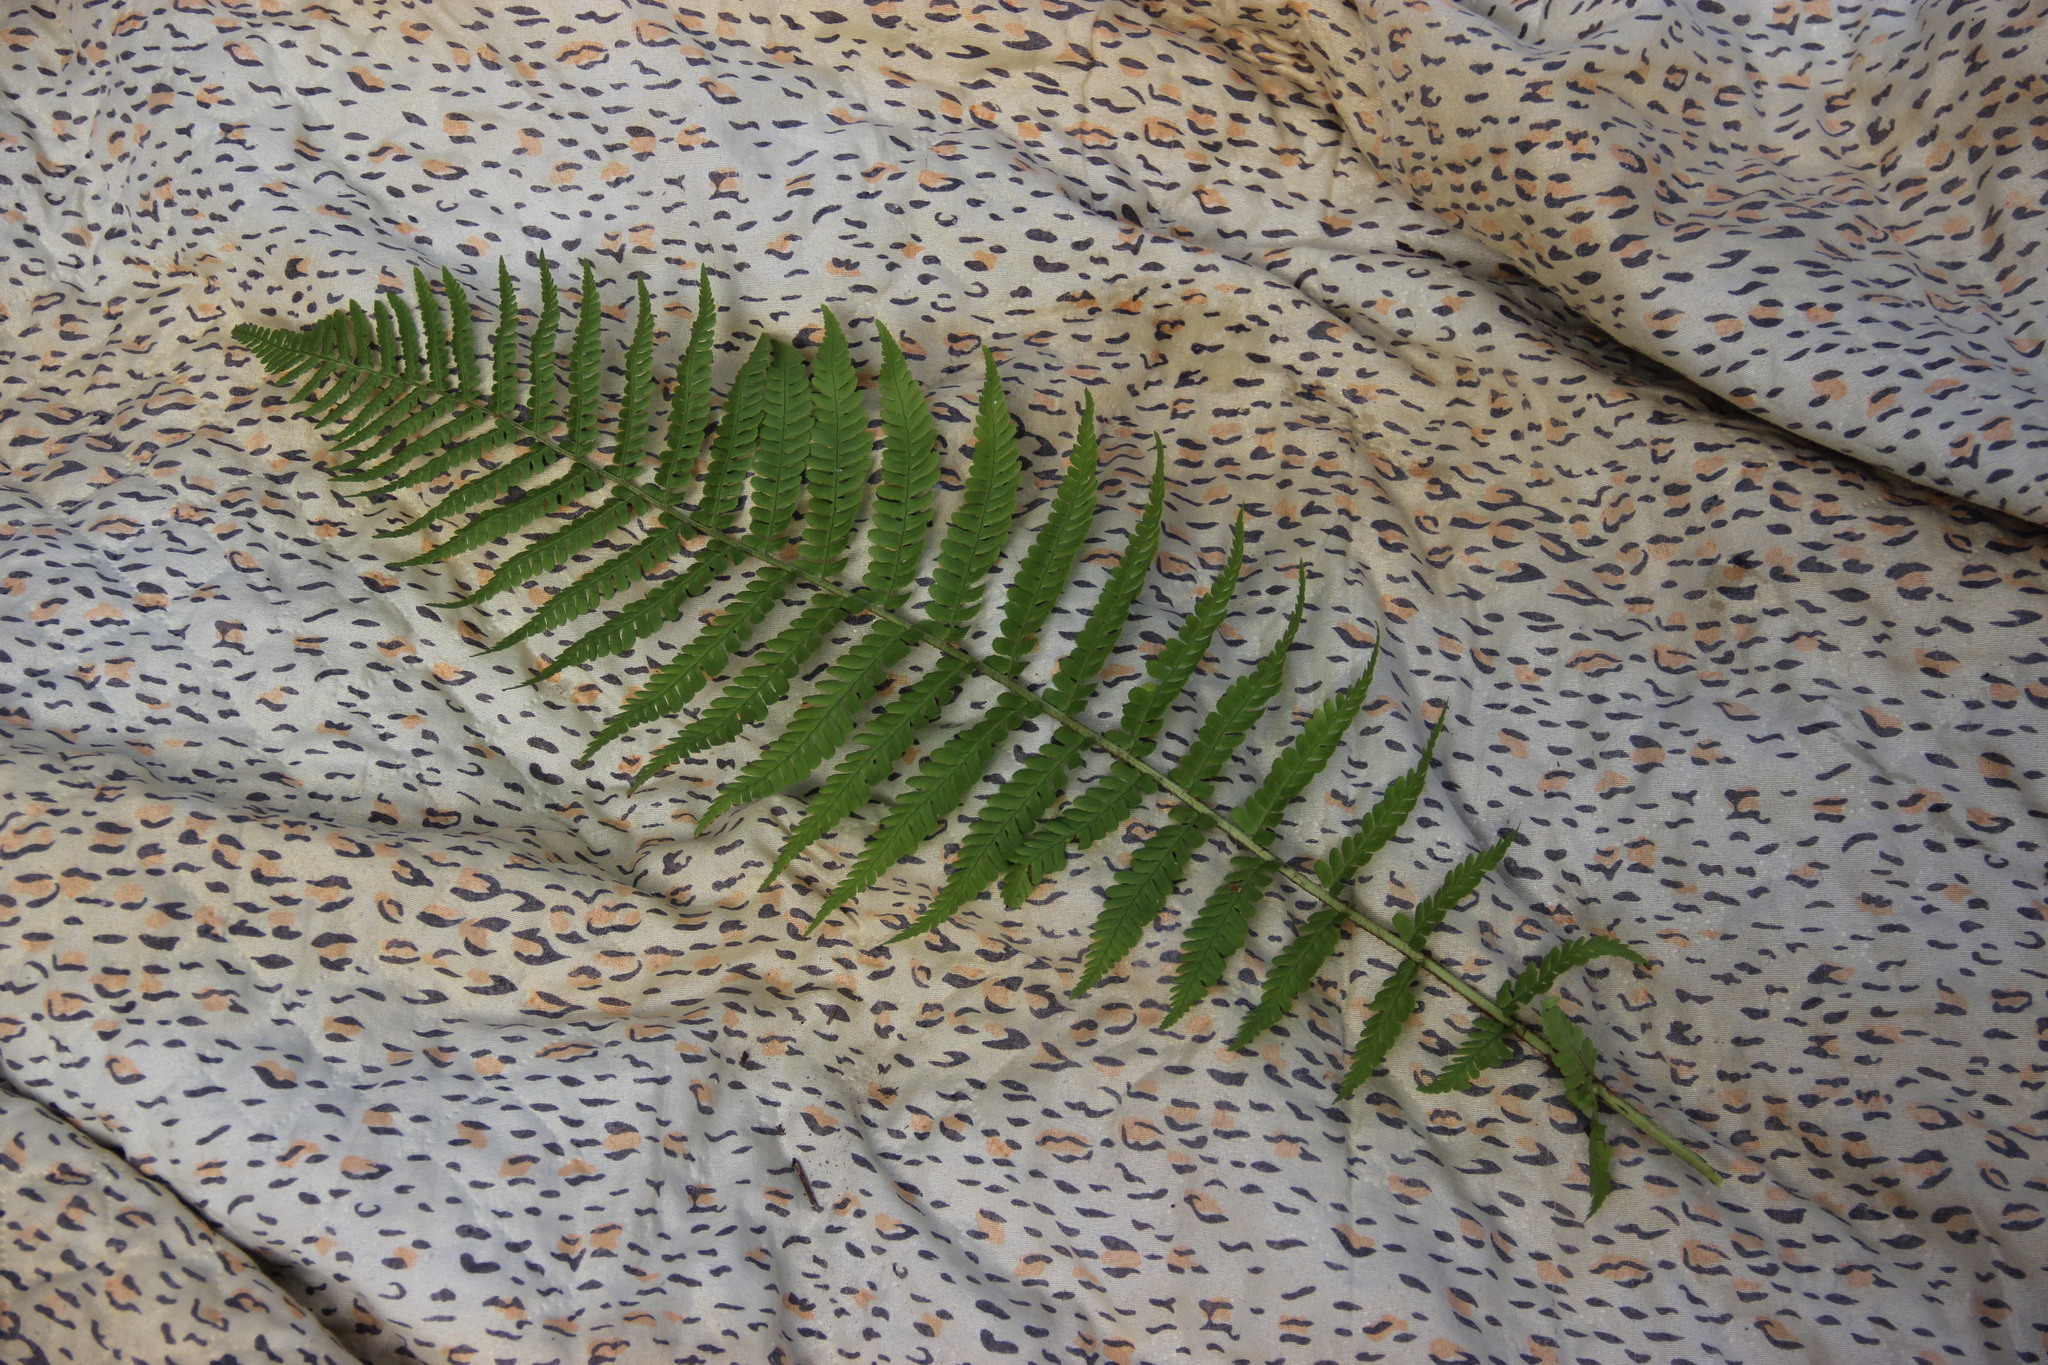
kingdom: Plantae
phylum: Tracheophyta
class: Polypodiopsida
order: Polypodiales
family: Dryopteridaceae
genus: Dryopteris
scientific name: Dryopteris filix-mas
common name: Male fern
